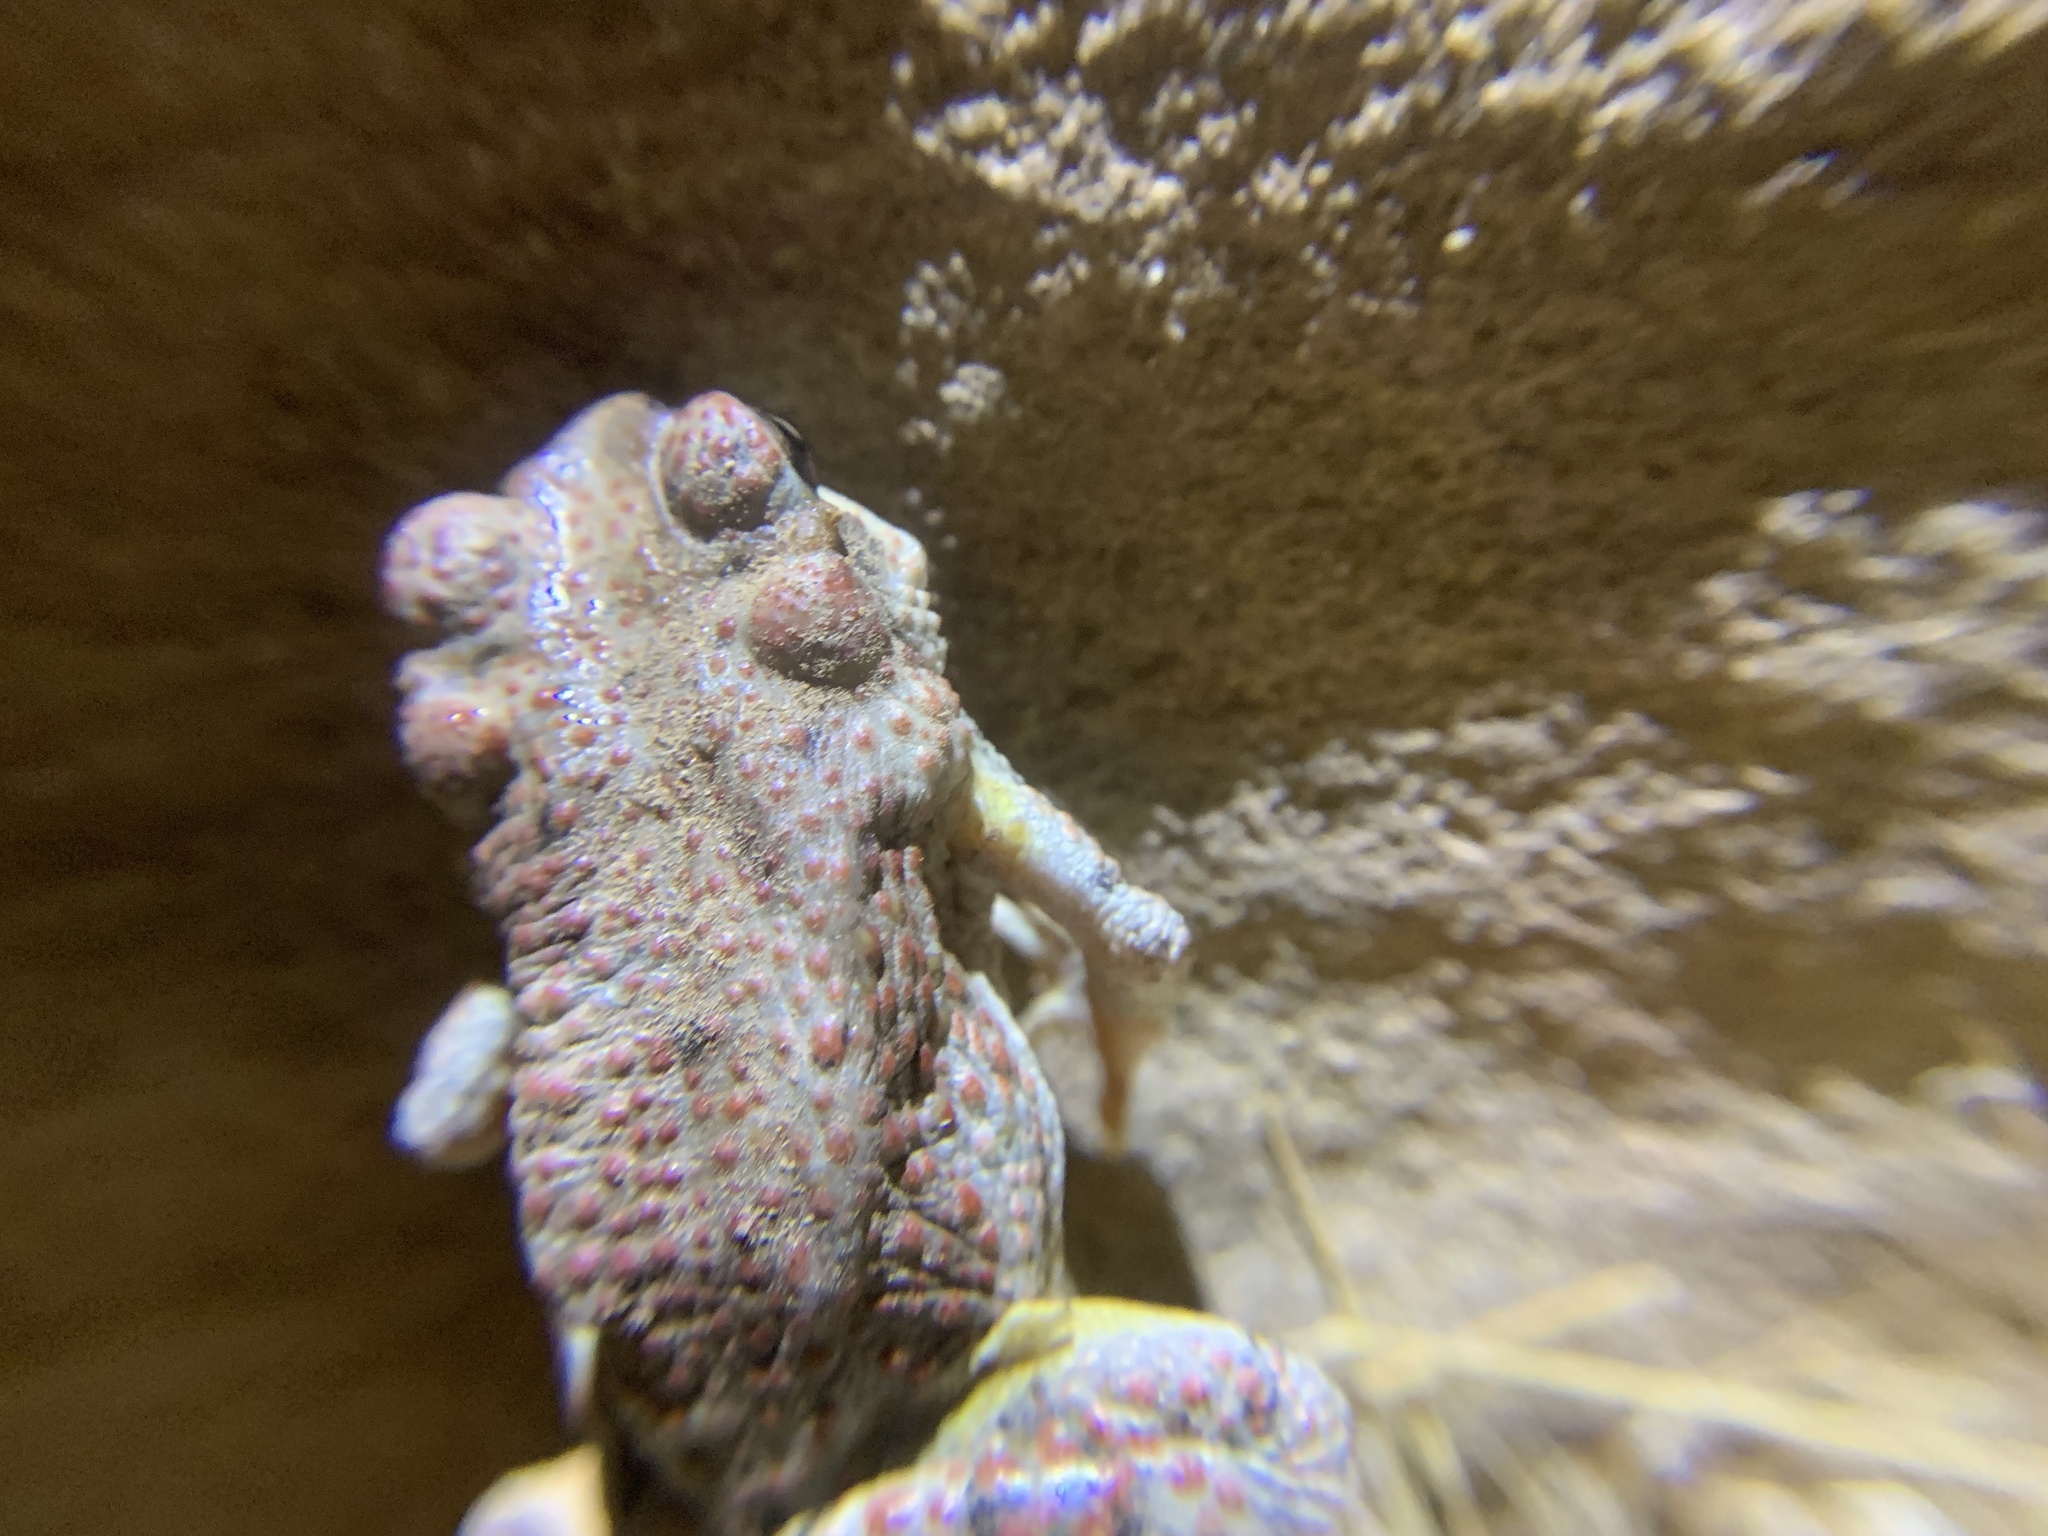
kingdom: Animalia
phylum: Chordata
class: Amphibia
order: Anura
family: Bufonidae
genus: Anaxyrus
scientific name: Anaxyrus punctatus
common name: Red-spotted toad
